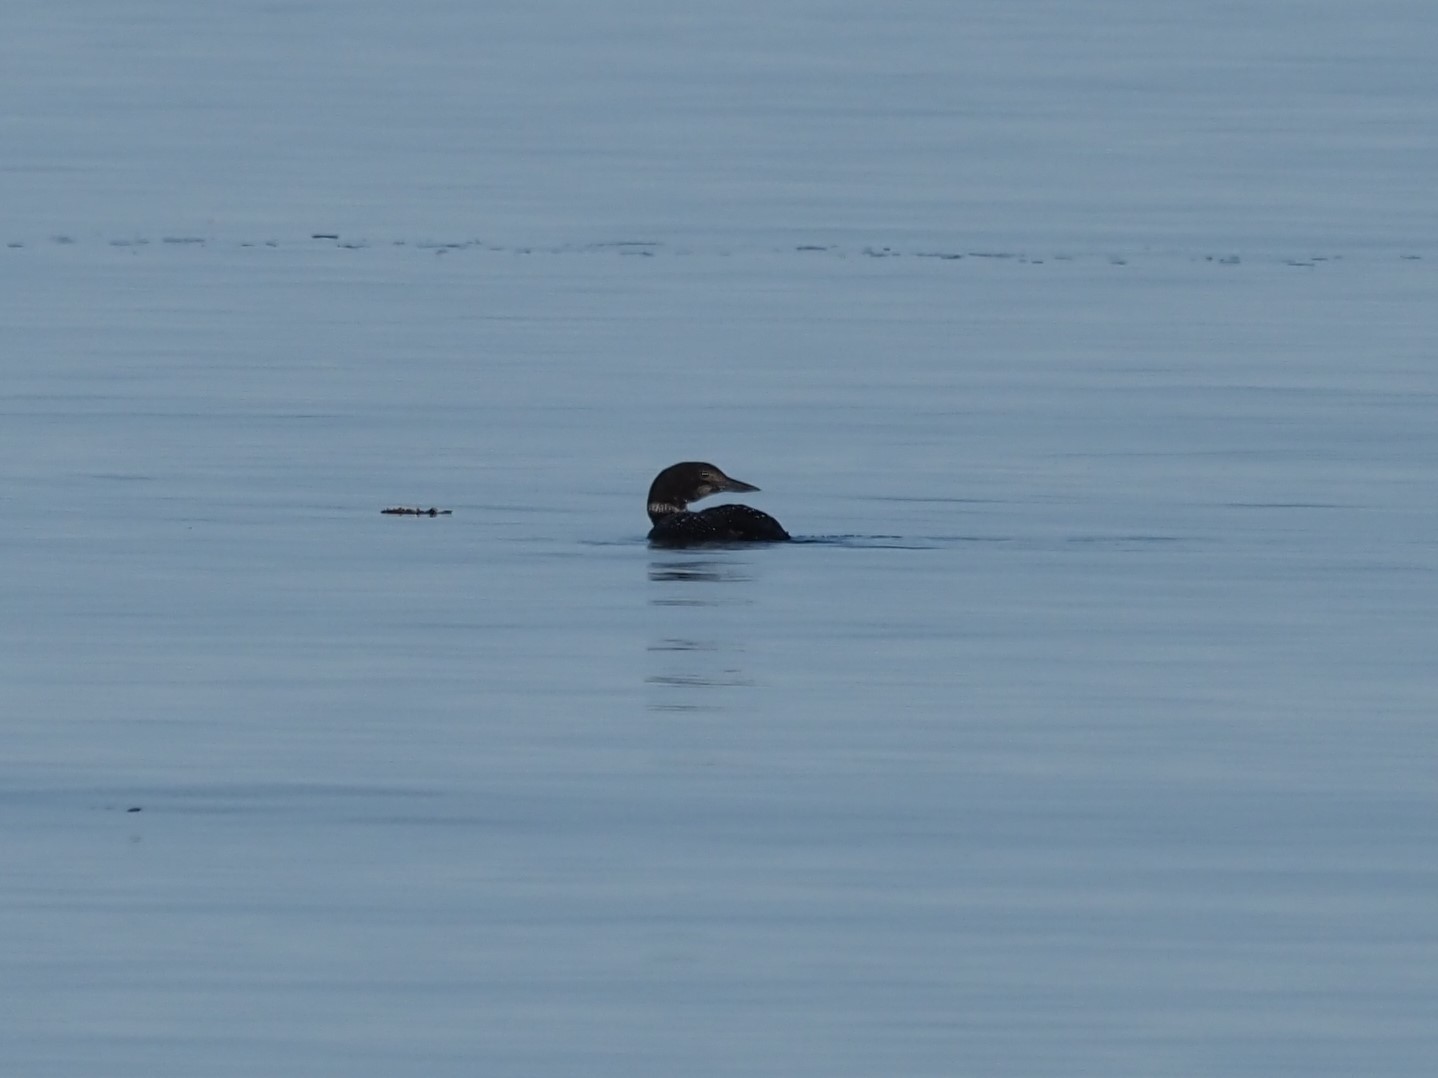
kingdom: Animalia
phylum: Chordata
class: Aves
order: Gaviiformes
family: Gaviidae
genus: Gavia
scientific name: Gavia immer
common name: Common loon
